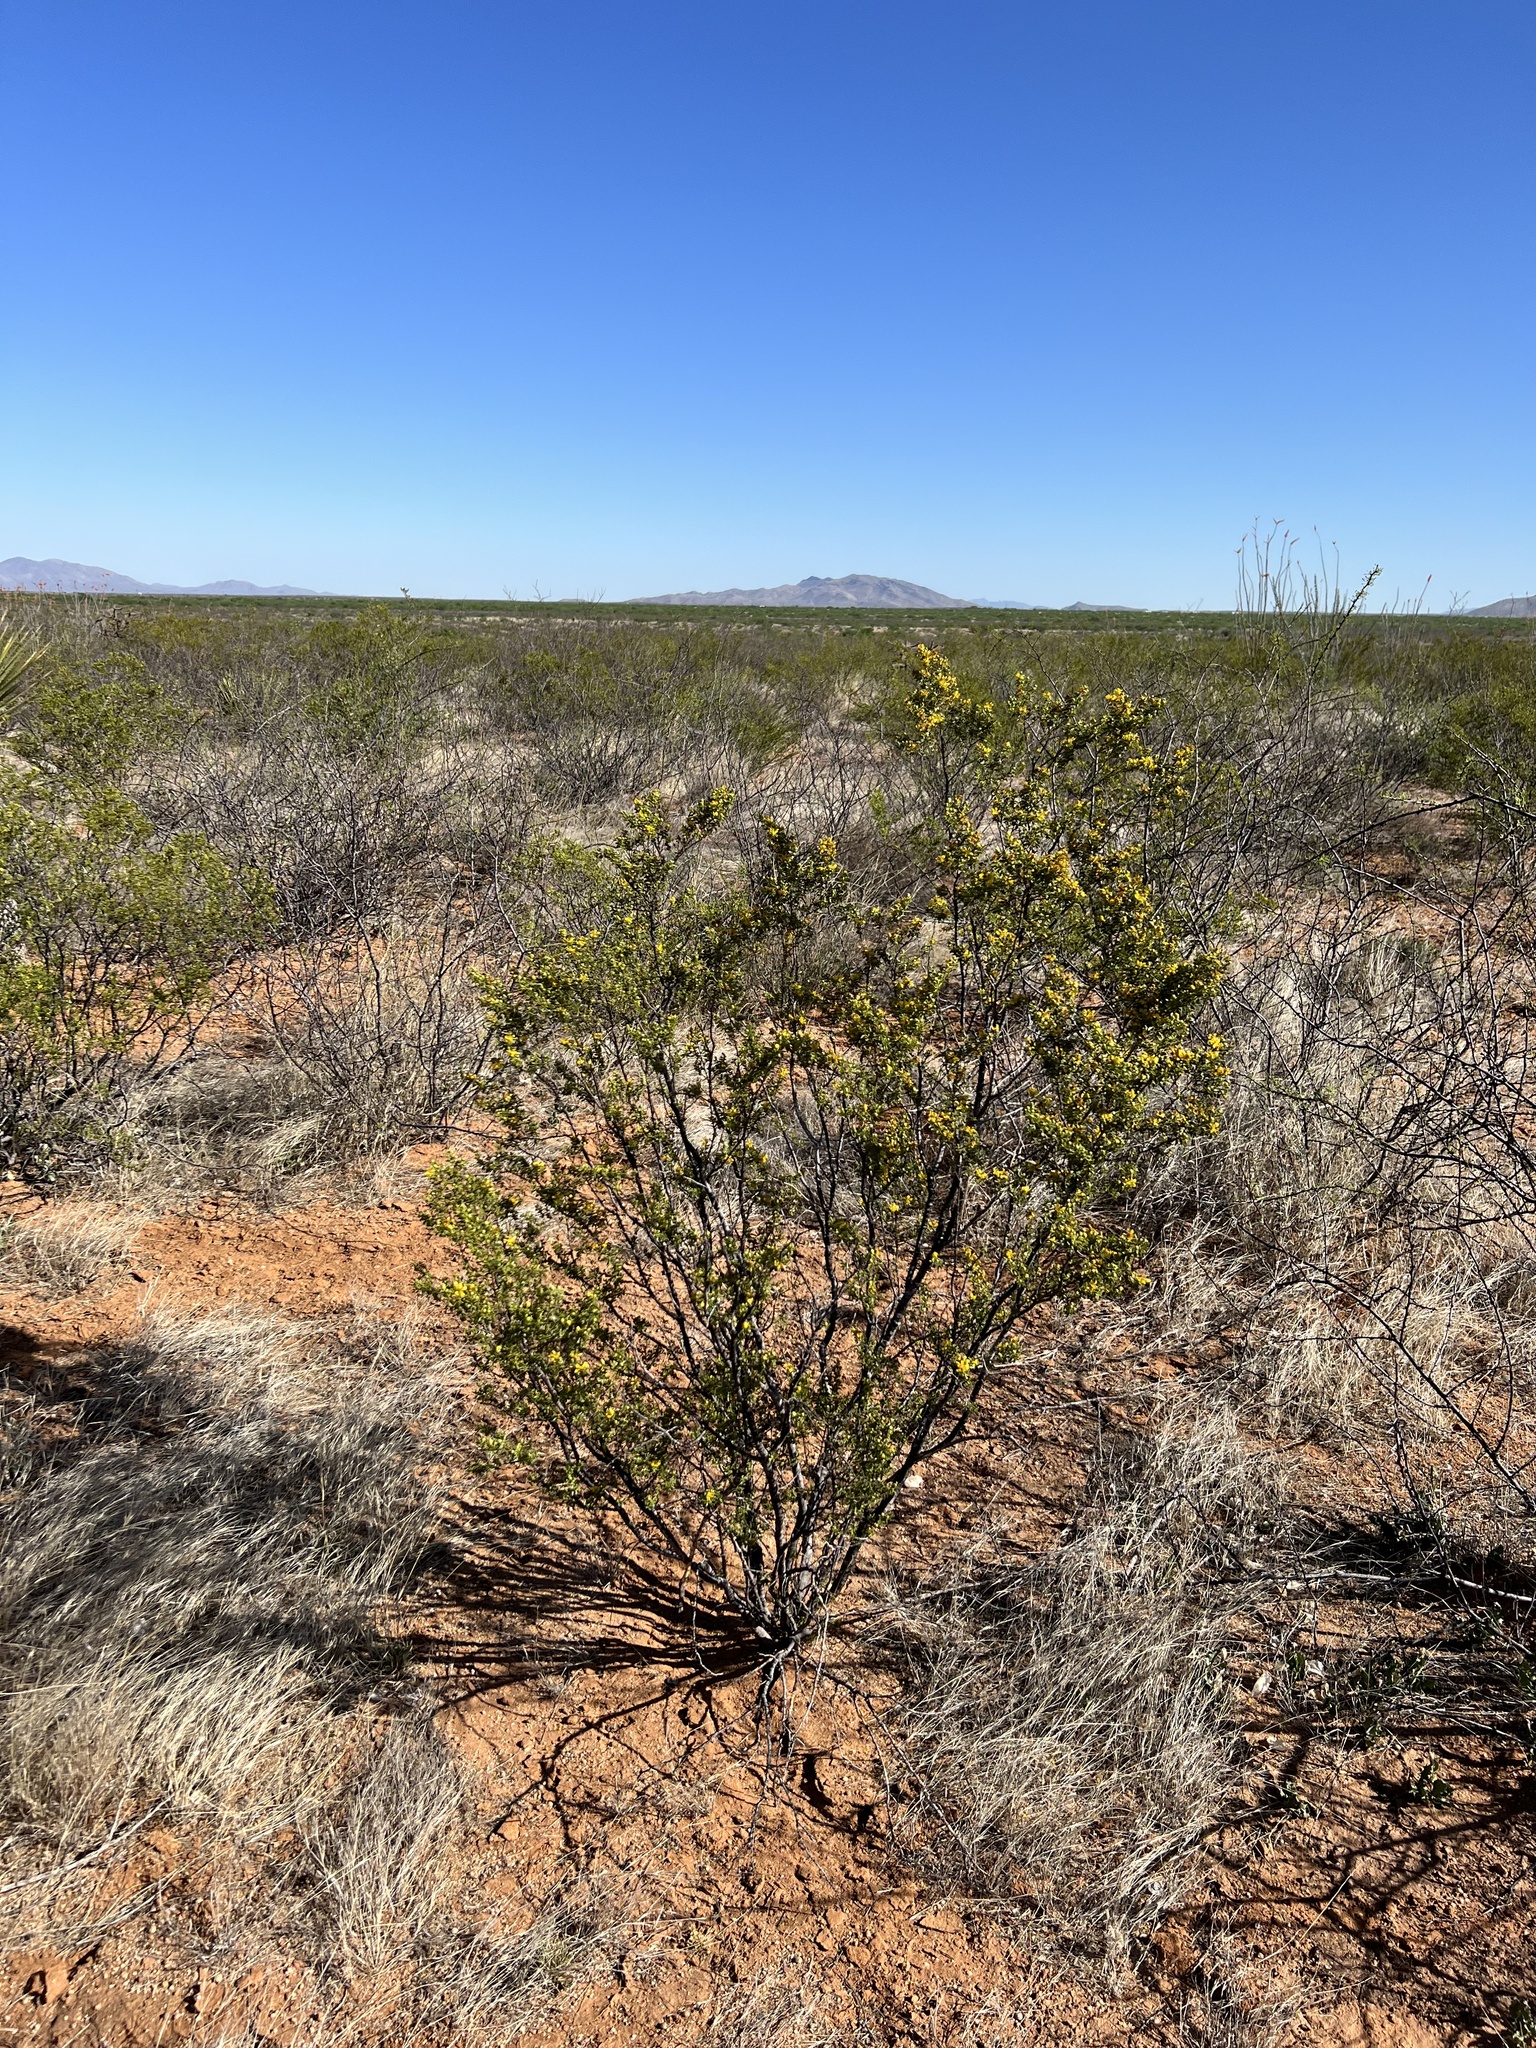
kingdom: Plantae
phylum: Tracheophyta
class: Magnoliopsida
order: Zygophyllales
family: Zygophyllaceae
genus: Larrea
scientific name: Larrea tridentata
